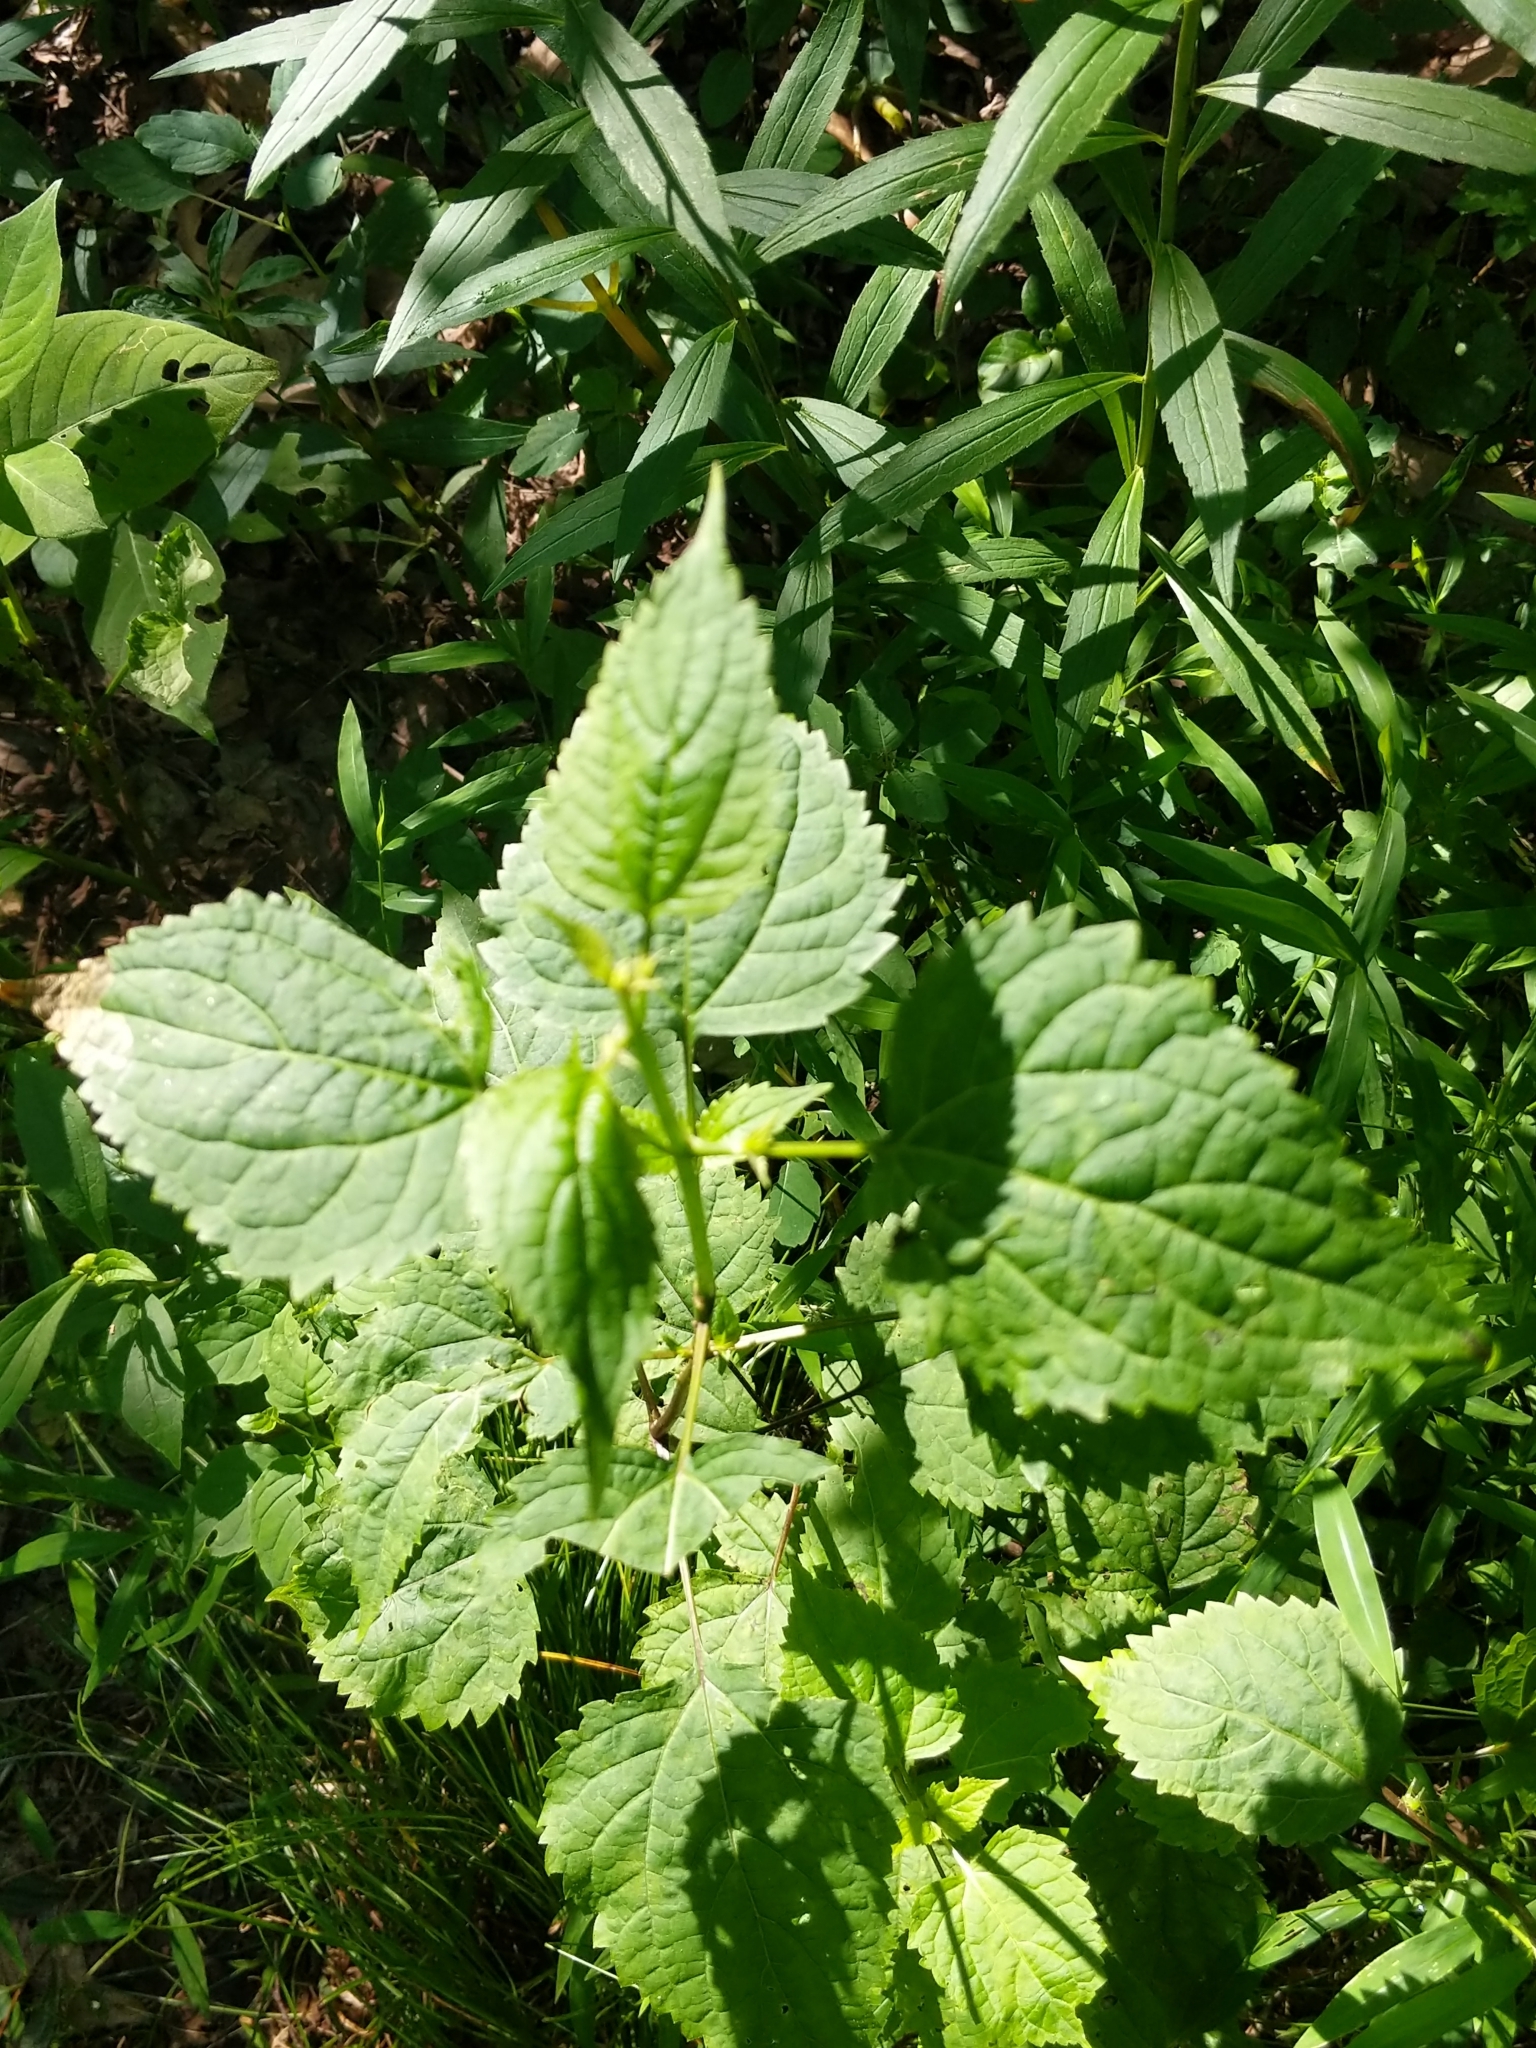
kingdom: Plantae
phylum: Tracheophyta
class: Magnoliopsida
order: Asterales
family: Asteraceae
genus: Ageratina
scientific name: Ageratina altissima
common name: White snakeroot
